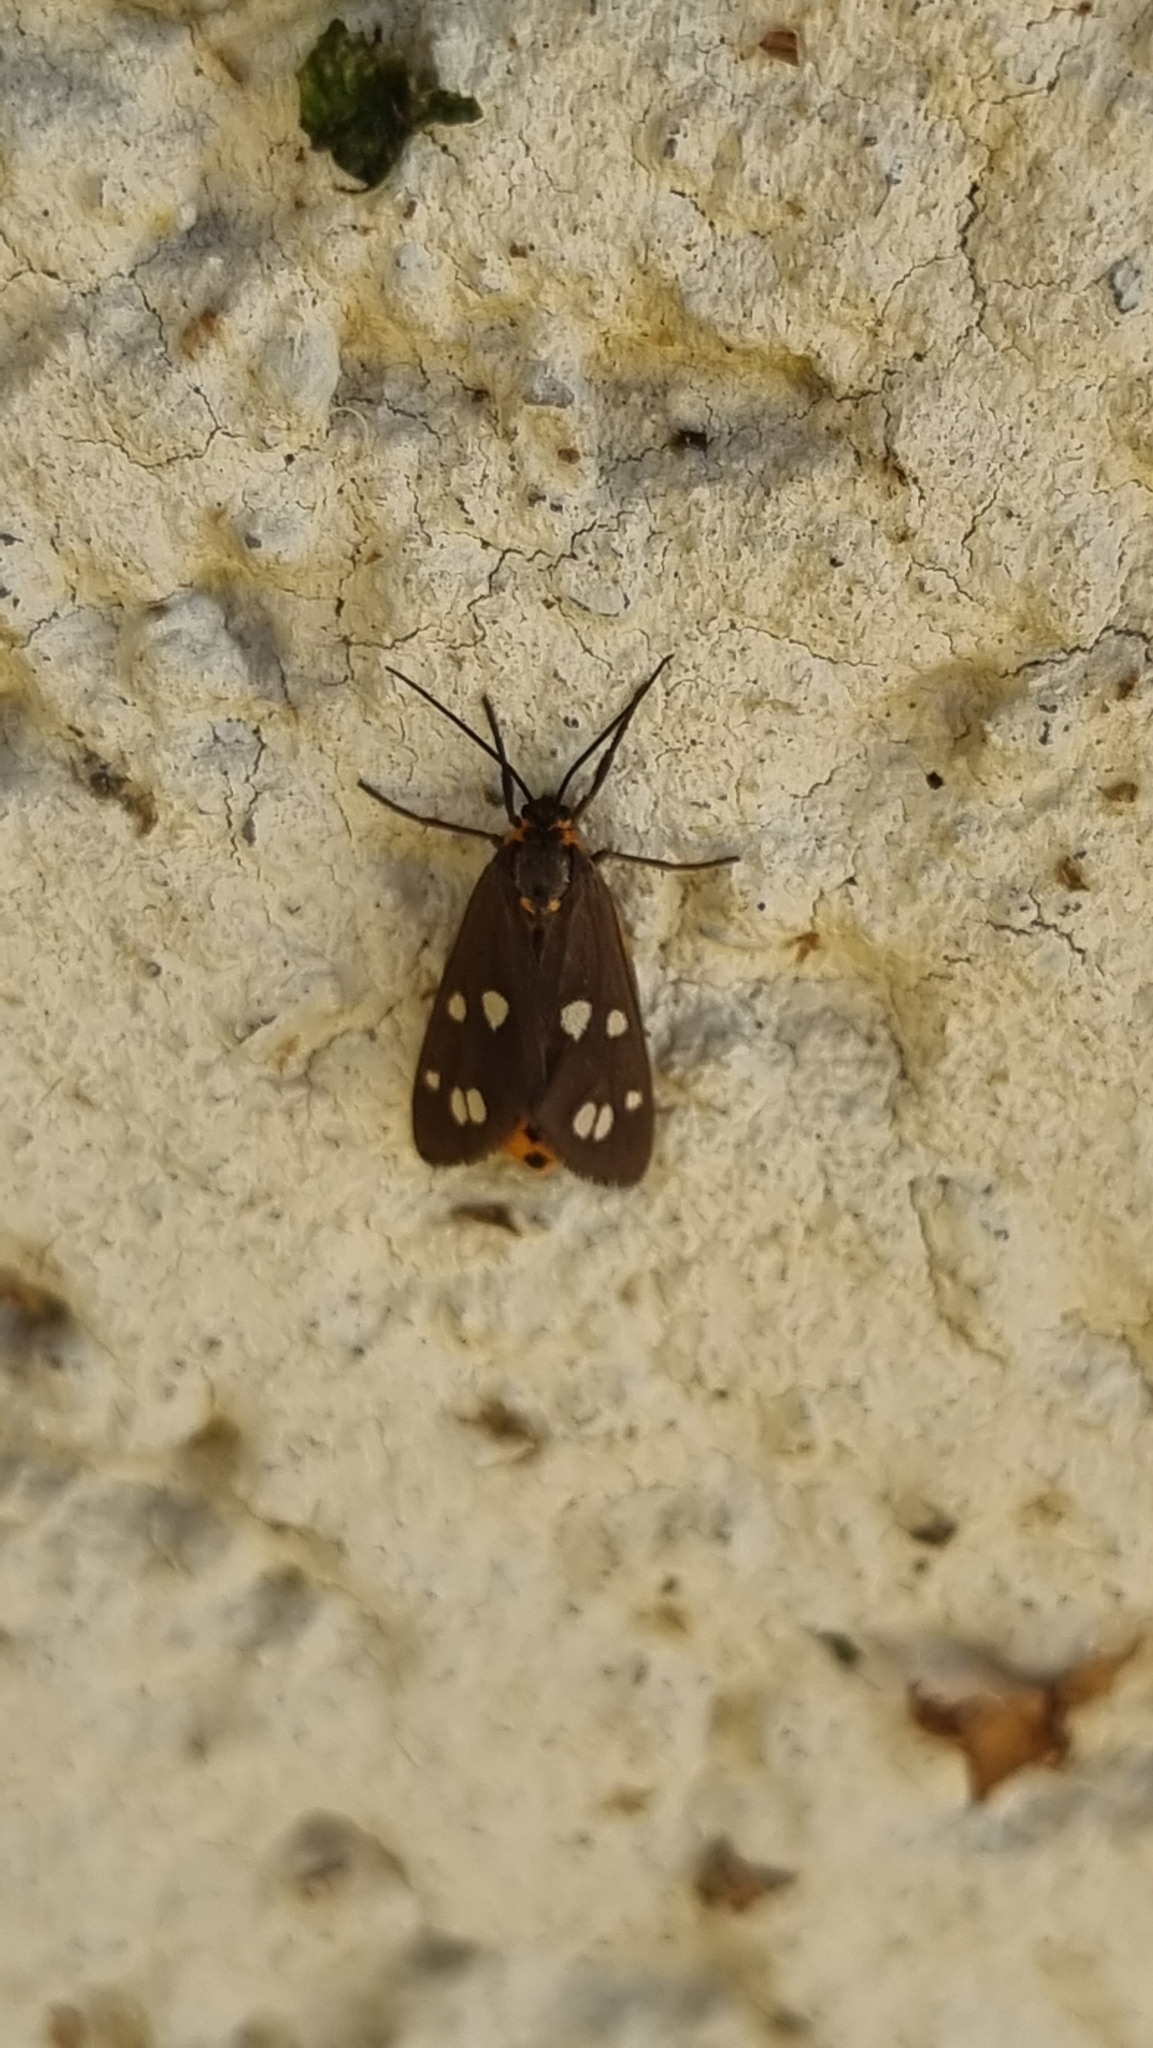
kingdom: Animalia
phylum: Arthropoda
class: Insecta
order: Lepidoptera
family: Erebidae
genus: Dysauxes
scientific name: Dysauxes punctata
